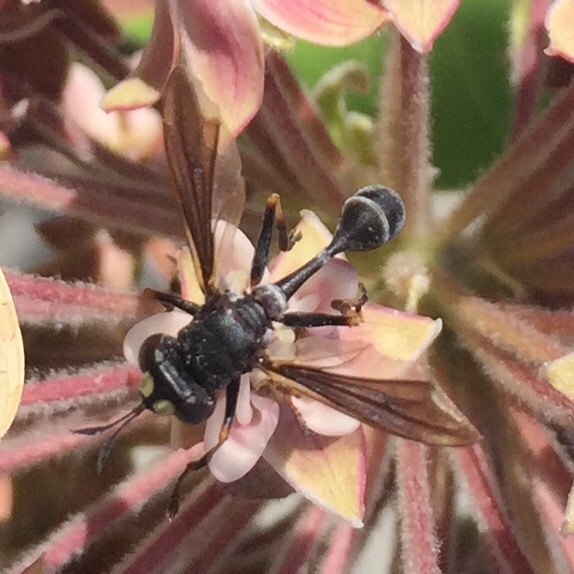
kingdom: Animalia
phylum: Arthropoda
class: Insecta
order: Diptera
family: Conopidae
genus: Physocephala
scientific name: Physocephala tibialis
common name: Common eastern physocephala
